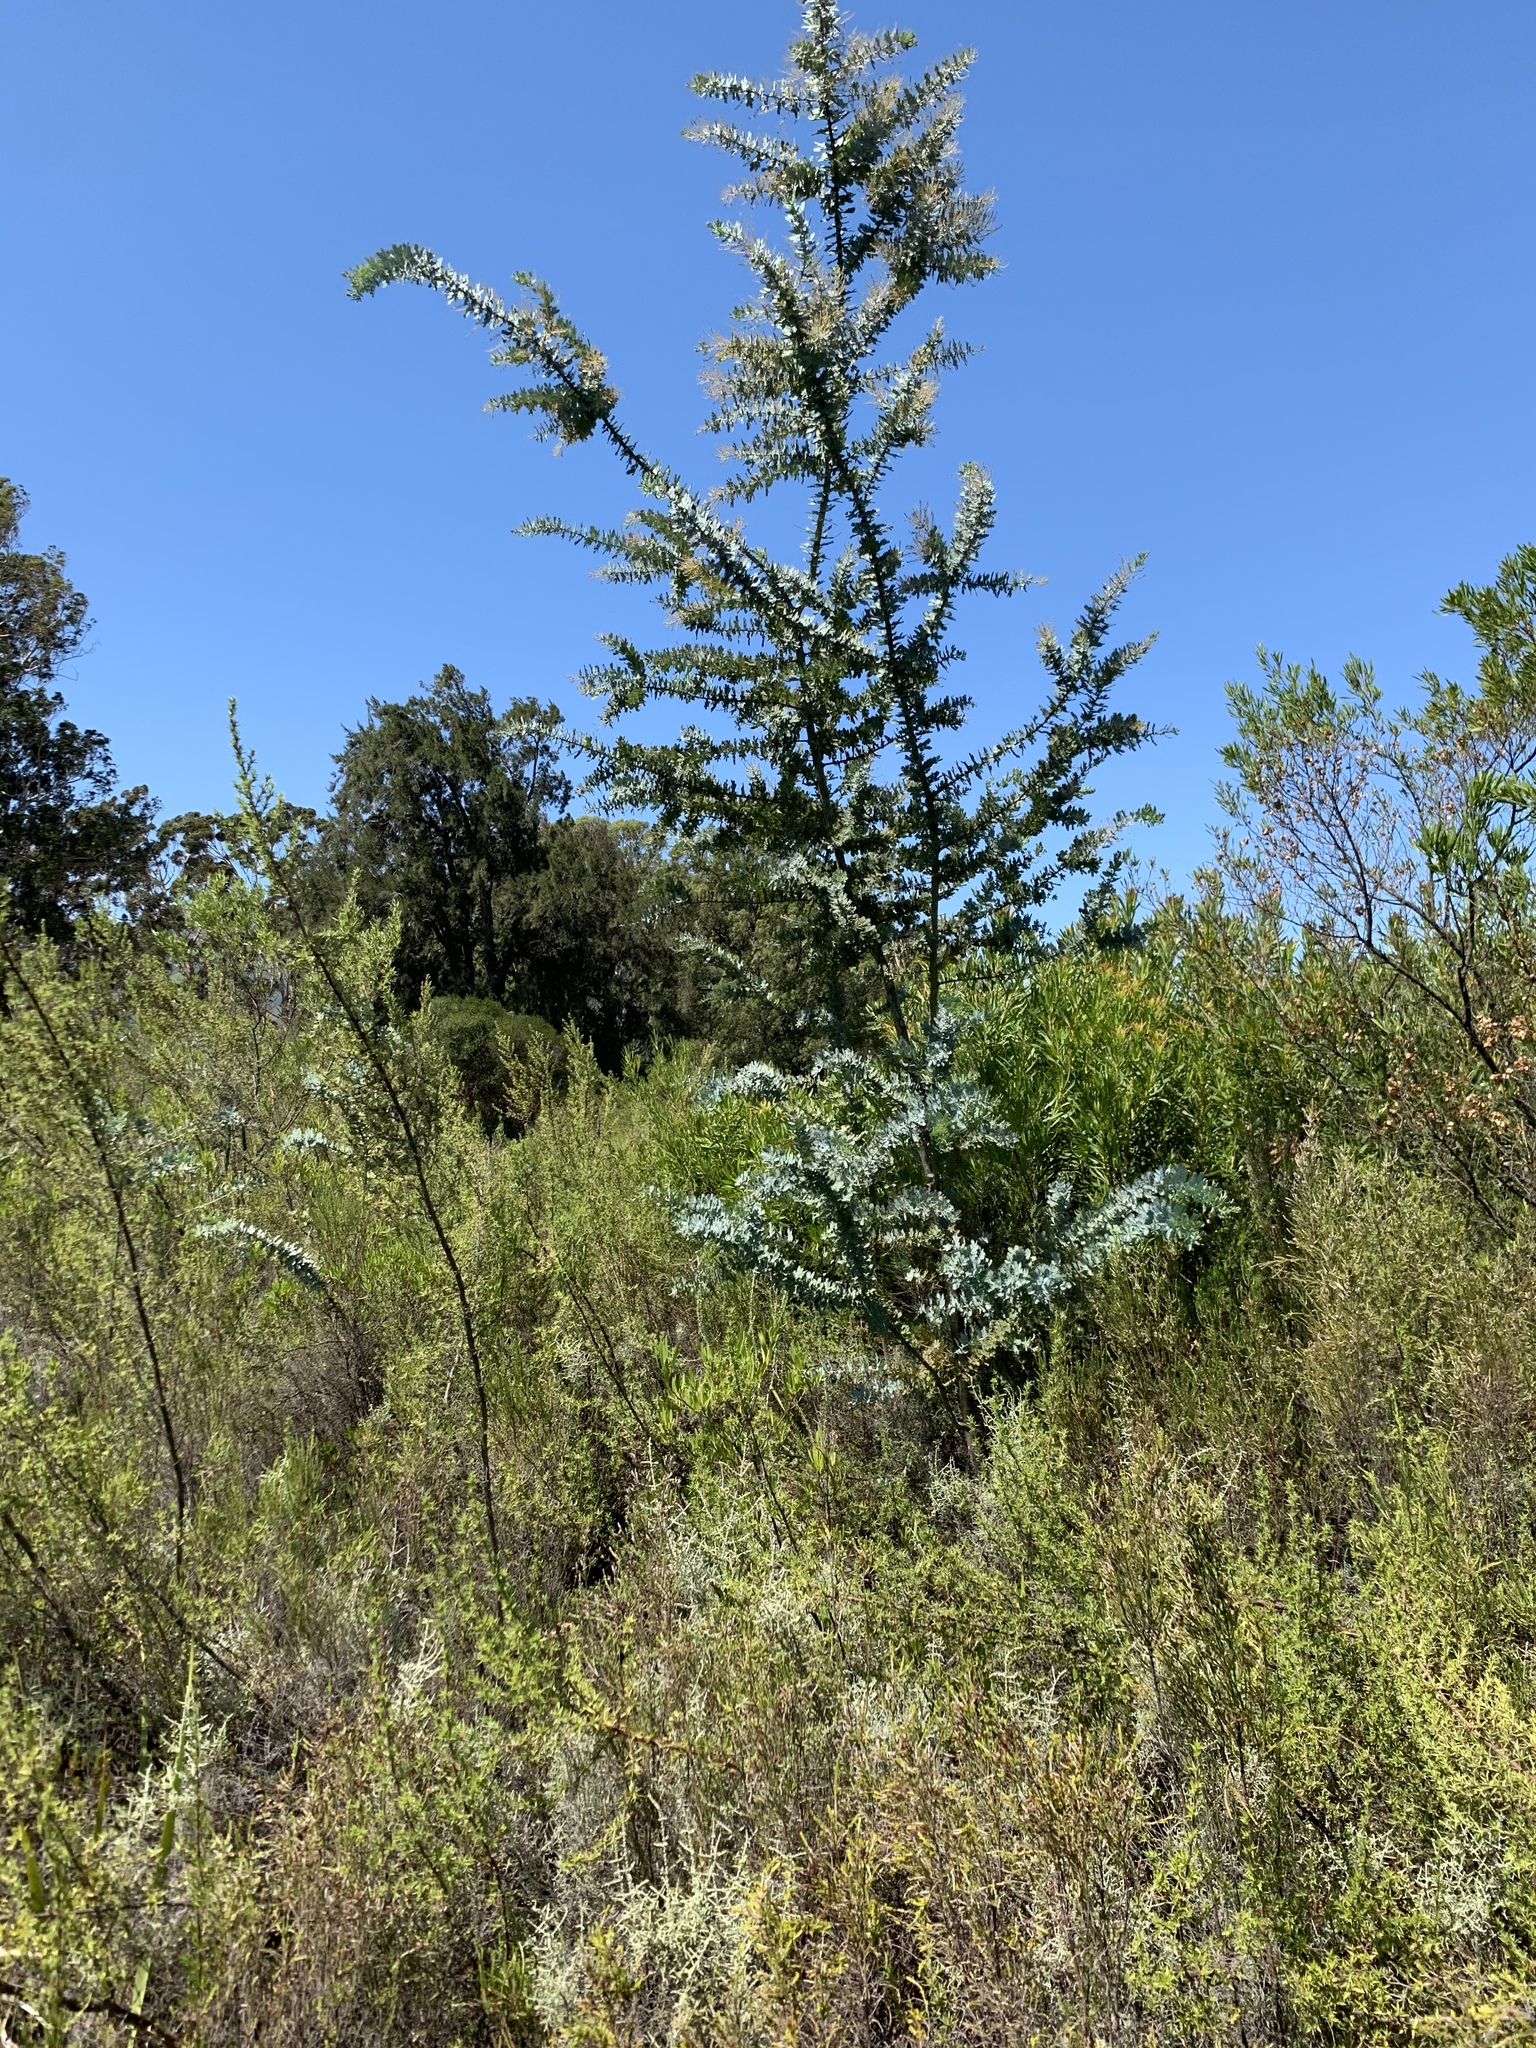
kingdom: Plantae
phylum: Tracheophyta
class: Magnoliopsida
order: Fabales
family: Fabaceae
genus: Acacia
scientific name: Acacia baileyana
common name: Cootamundra wattle
